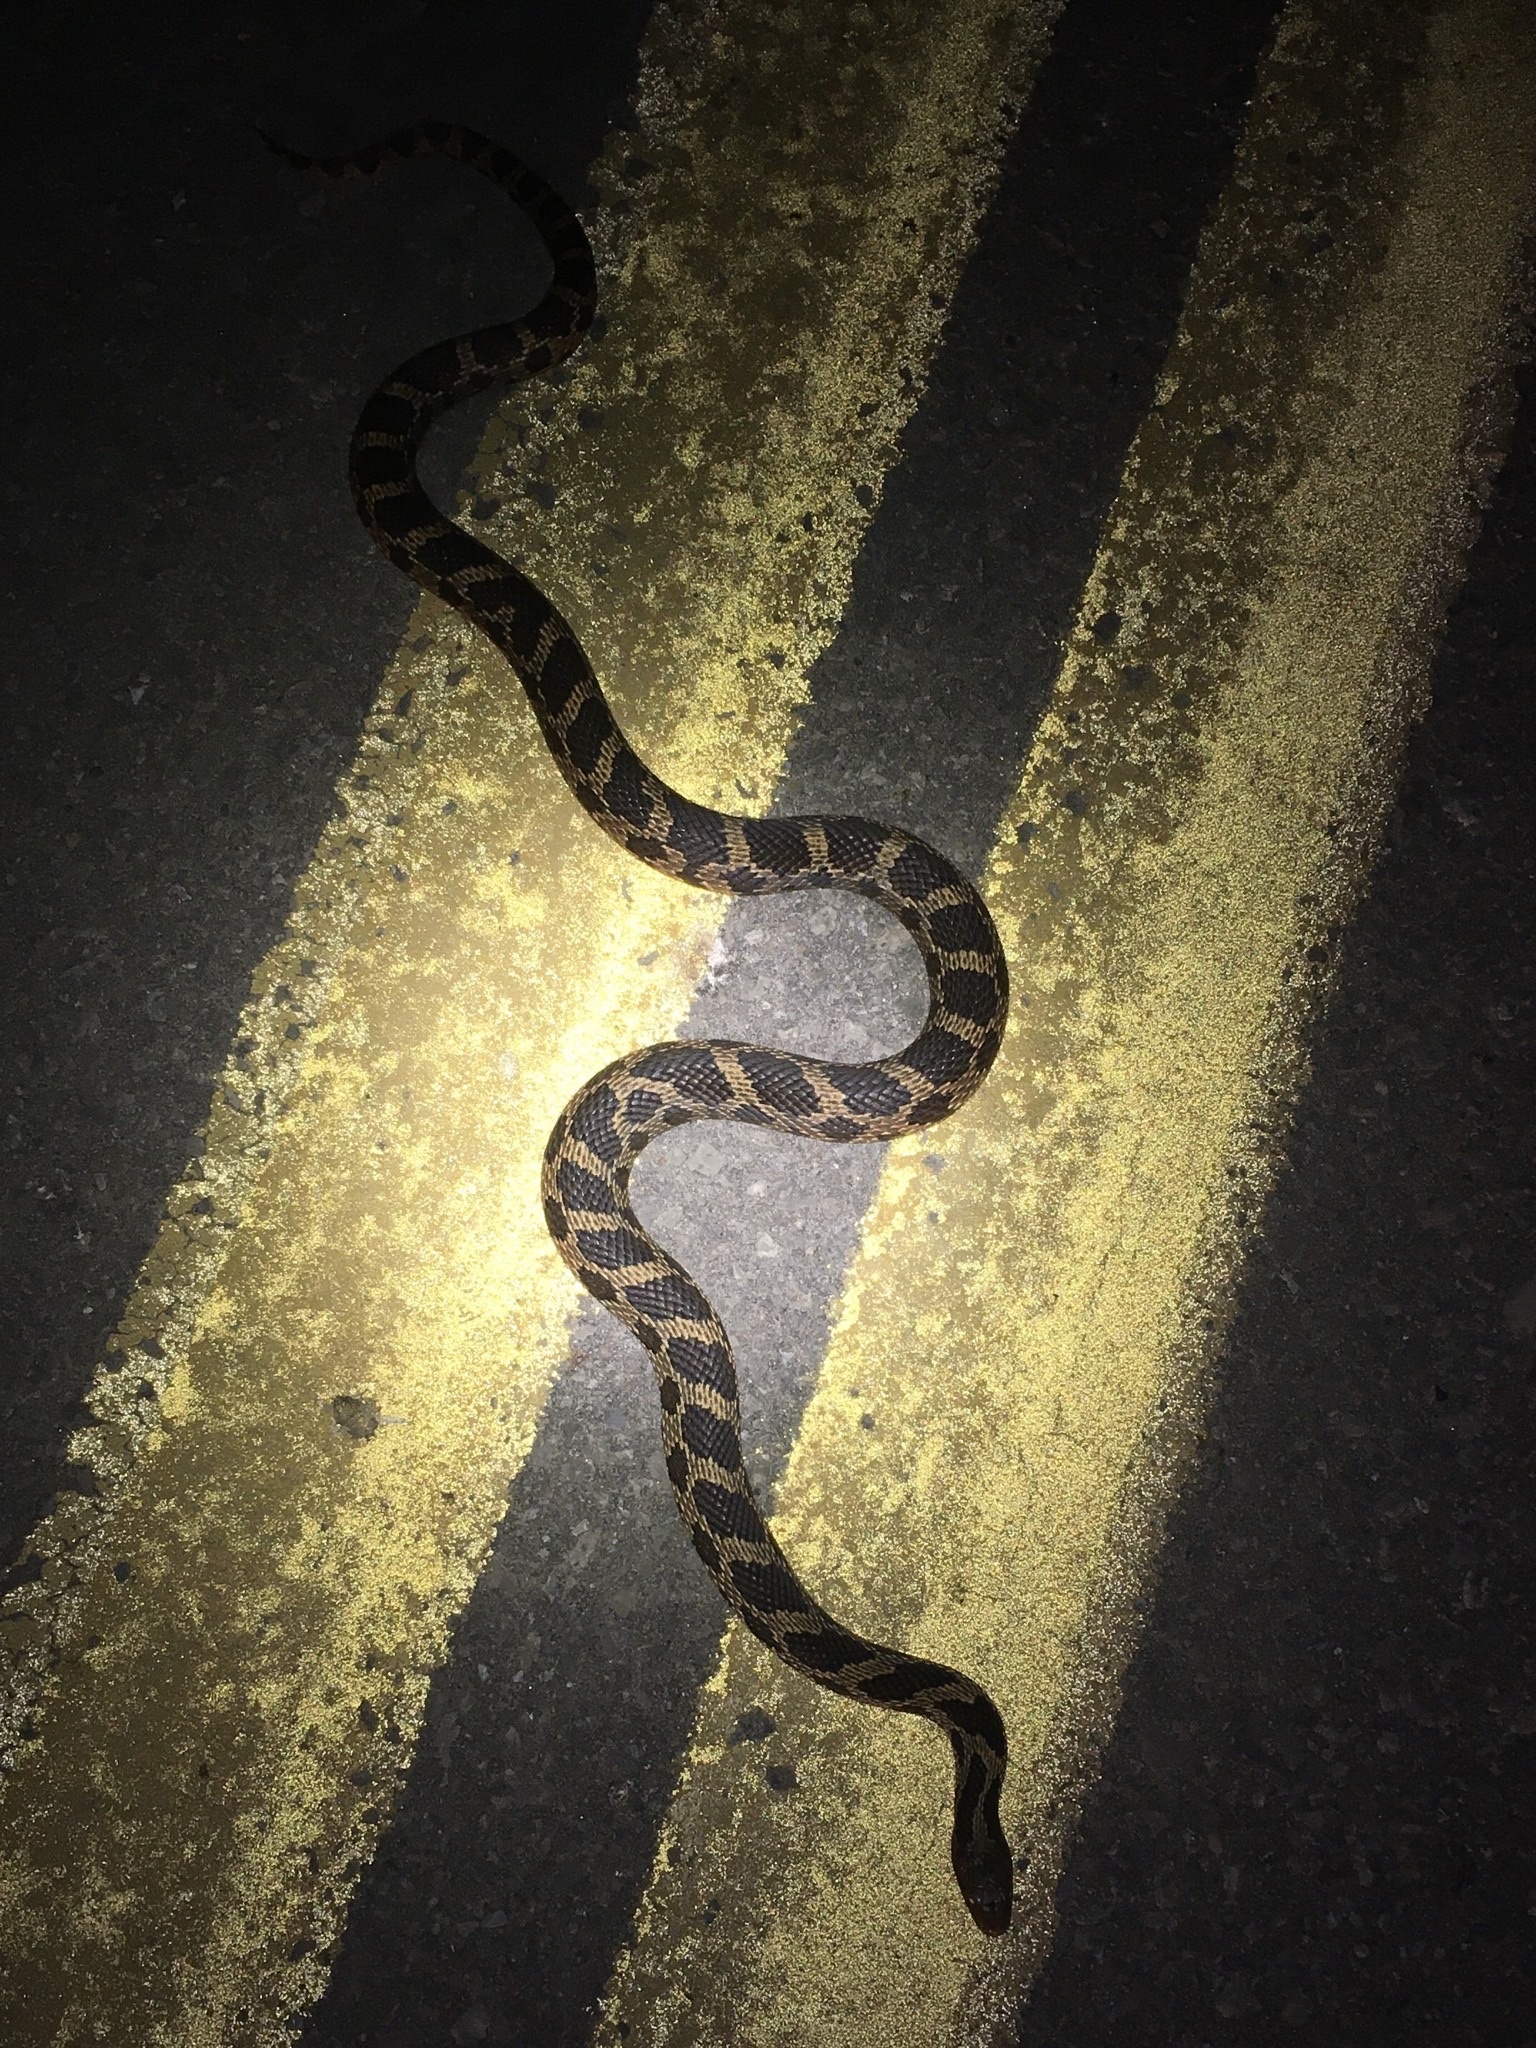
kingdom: Animalia
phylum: Chordata
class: Squamata
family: Colubridae
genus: Pantherophis
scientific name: Pantherophis vulpinus
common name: Eastern fox snake
